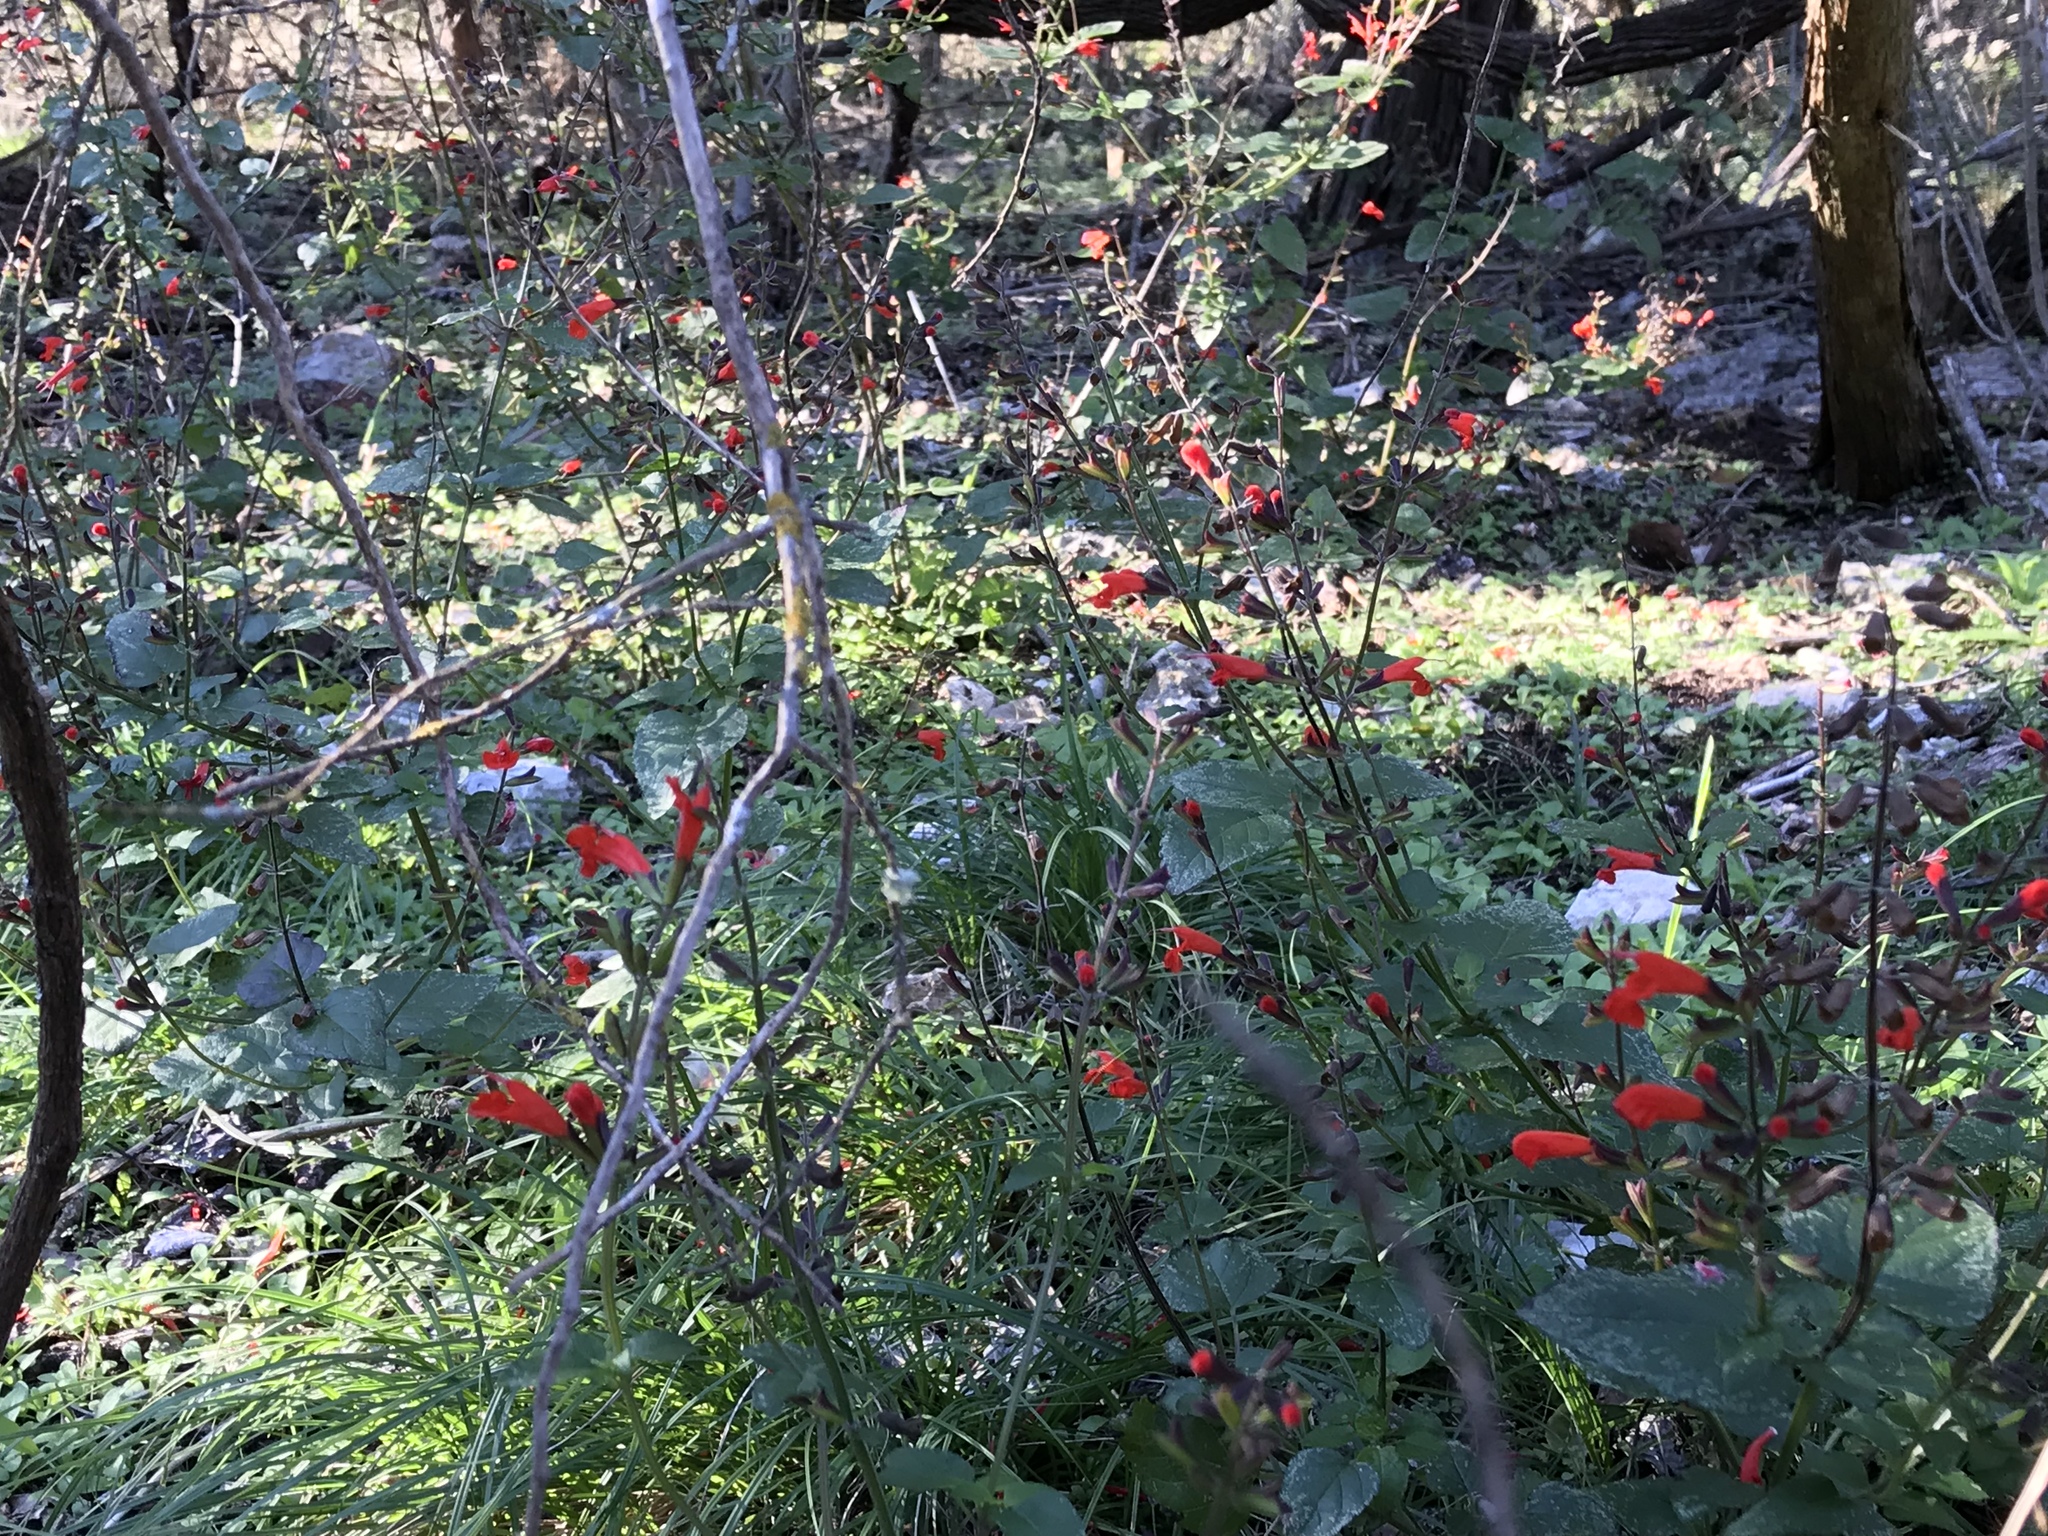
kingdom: Plantae
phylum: Tracheophyta
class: Magnoliopsida
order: Lamiales
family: Lamiaceae
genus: Salvia
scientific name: Salvia coccinea
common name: Blood sage
